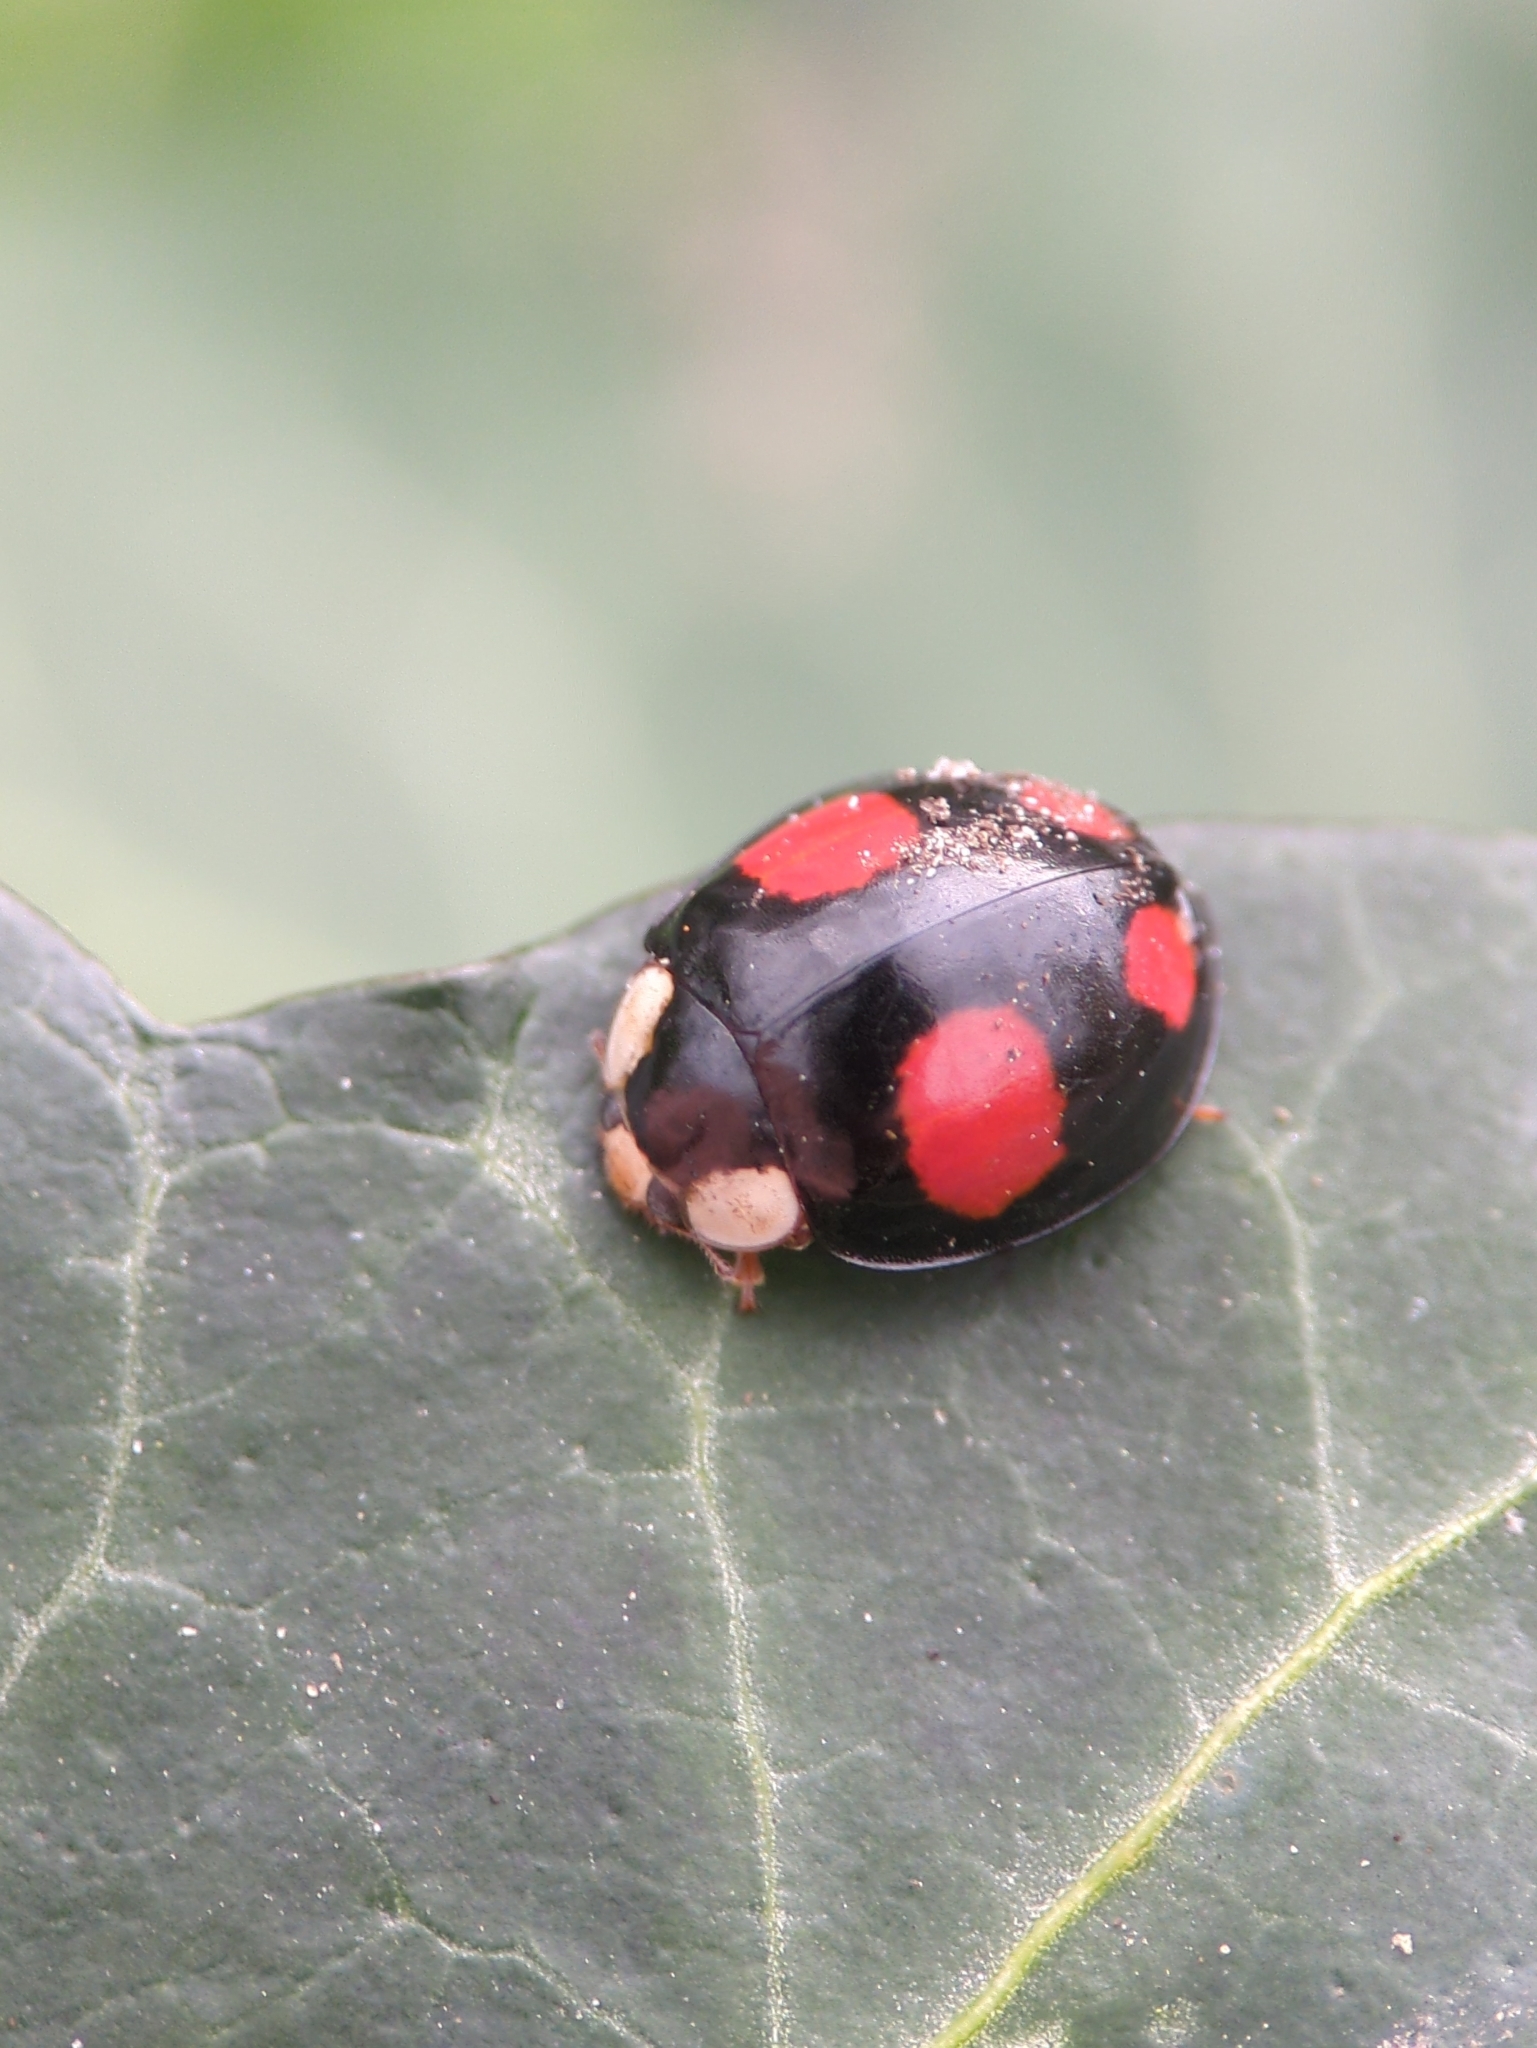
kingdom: Animalia
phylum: Arthropoda
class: Insecta
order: Coleoptera
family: Coccinellidae
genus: Harmonia
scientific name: Harmonia axyridis
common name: Harlequin ladybird
